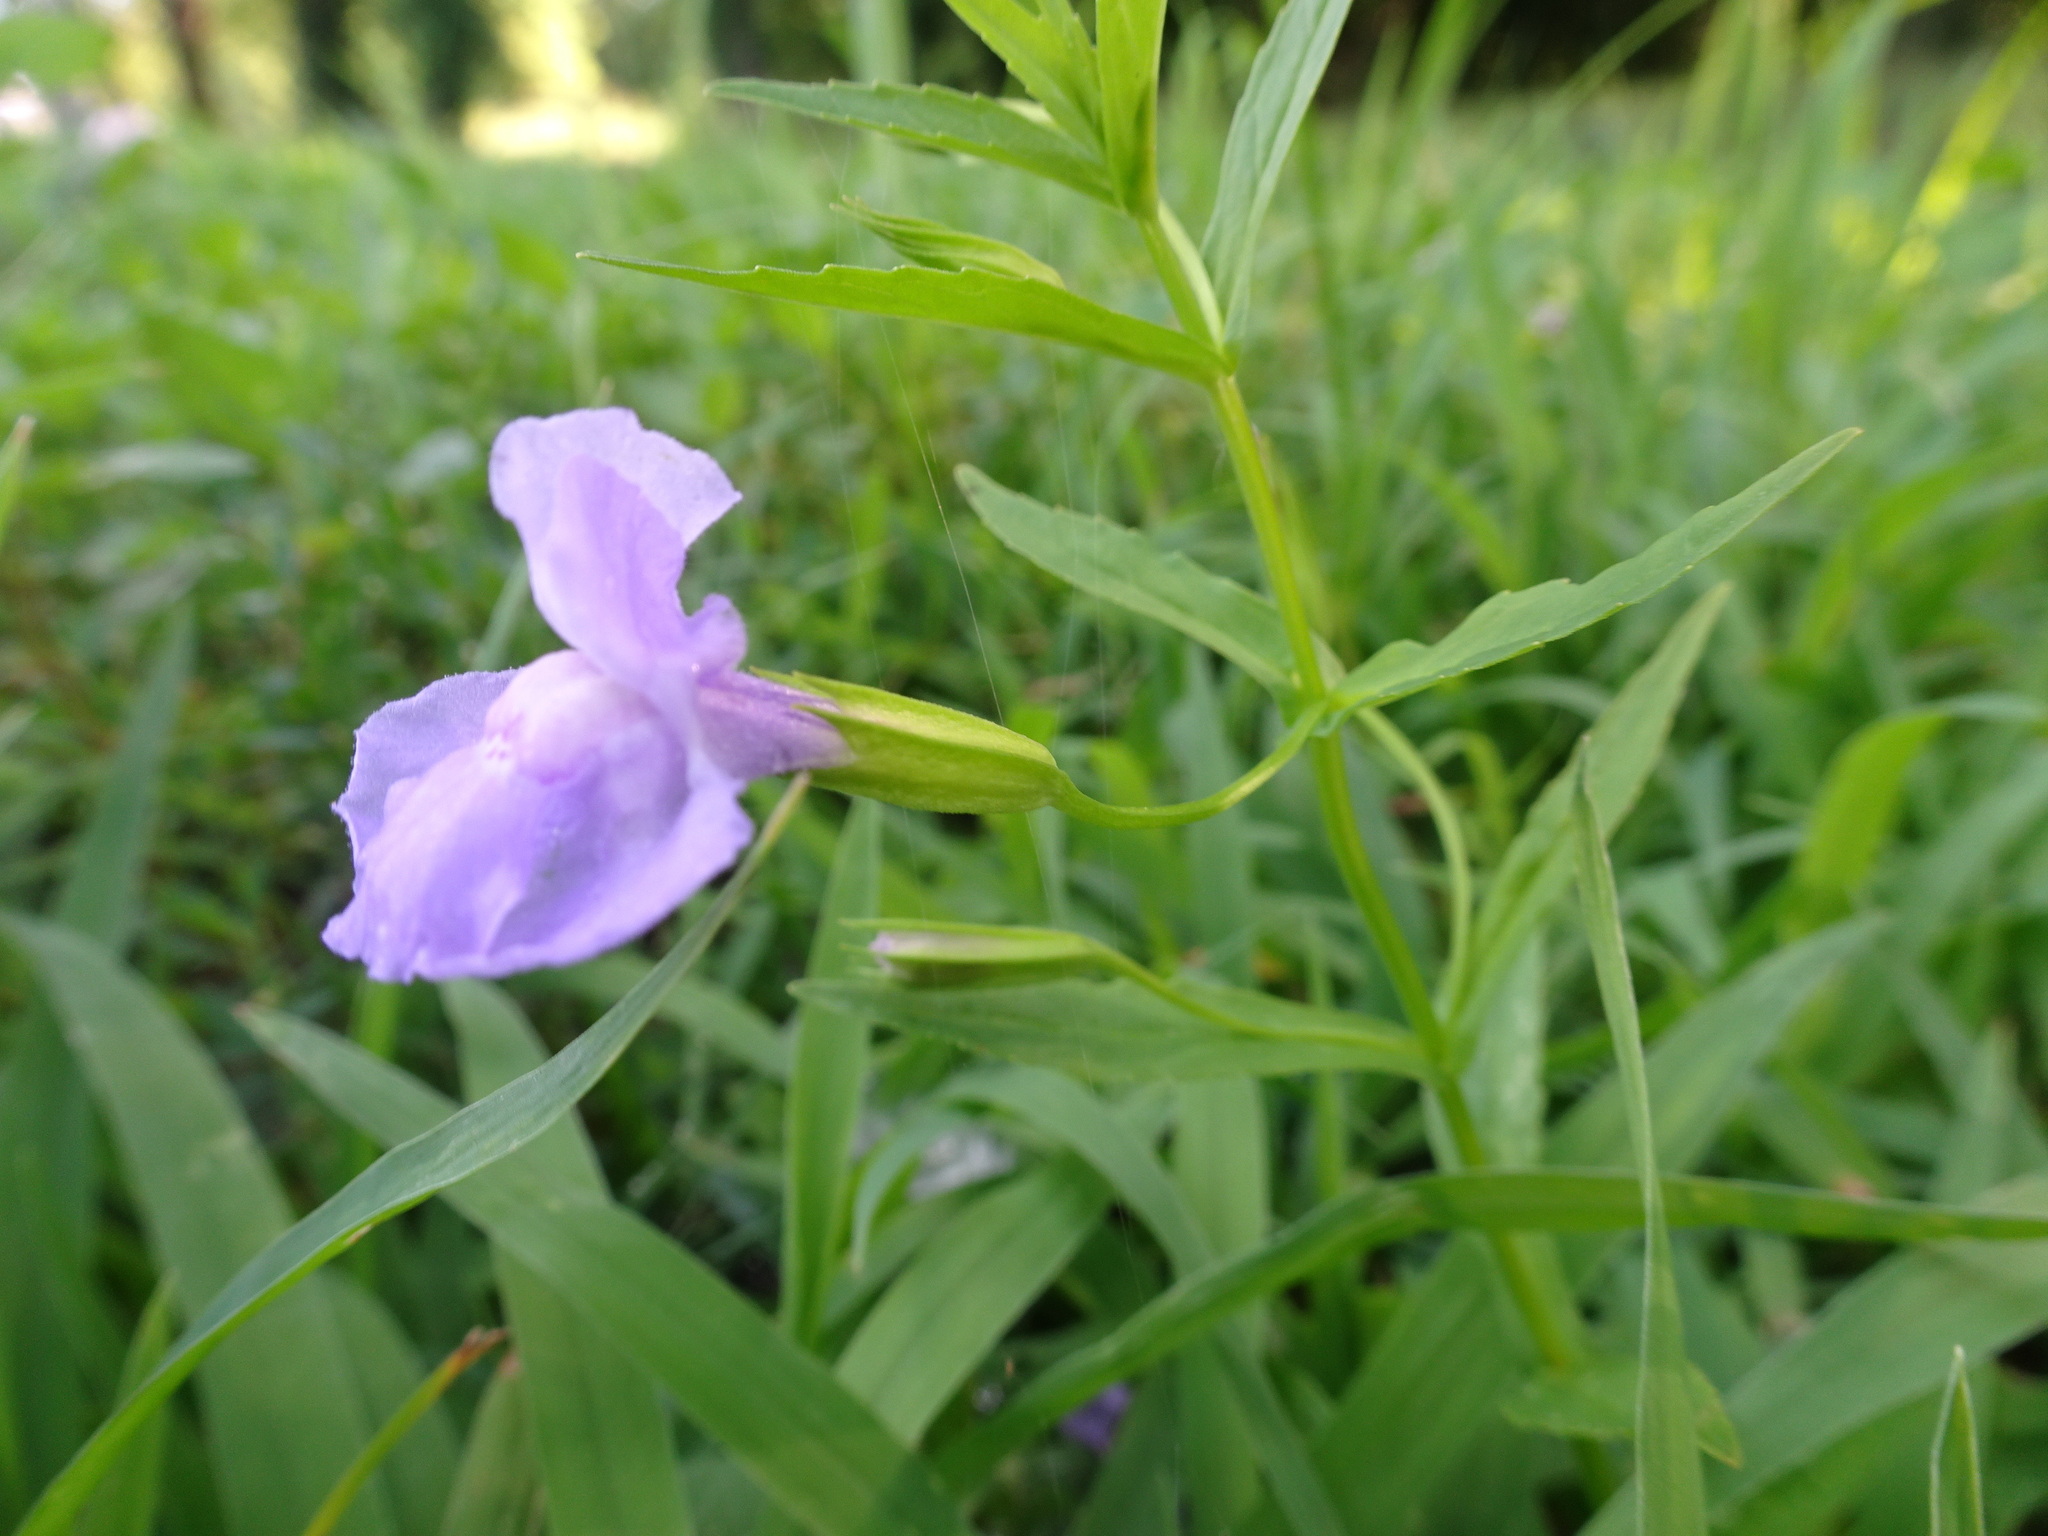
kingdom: Plantae
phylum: Tracheophyta
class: Magnoliopsida
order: Lamiales
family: Phrymaceae
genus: Mimulus
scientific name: Mimulus ringens
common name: Allegheny monkeyflower
